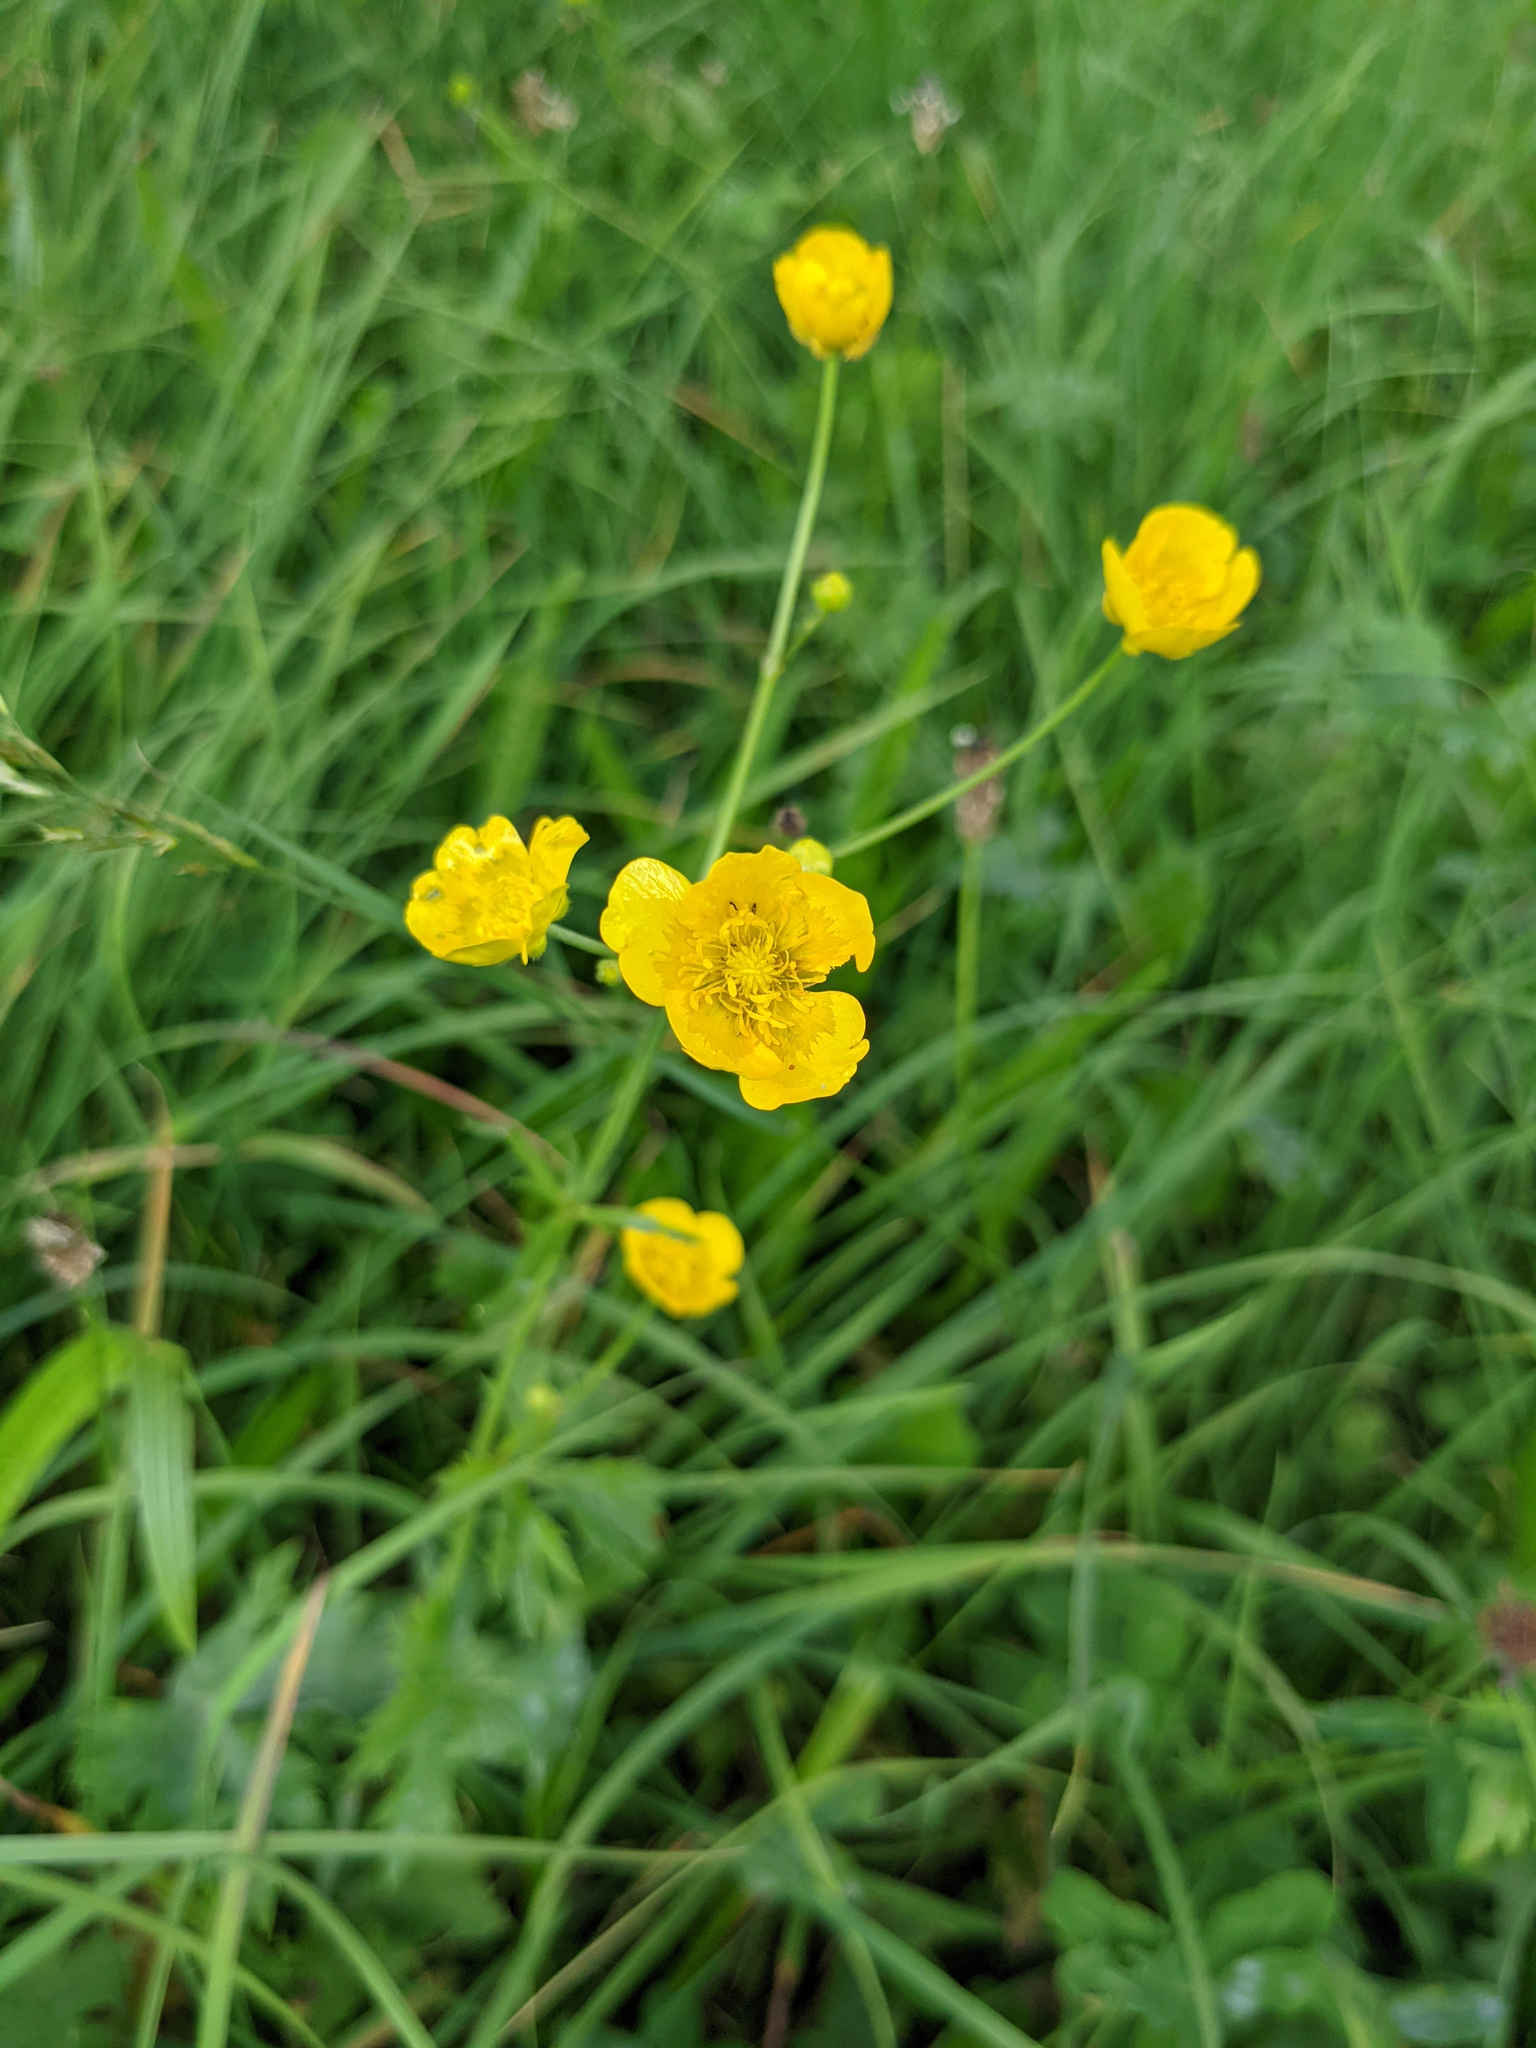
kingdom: Plantae
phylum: Tracheophyta
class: Magnoliopsida
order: Ranunculales
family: Ranunculaceae
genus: Ranunculus
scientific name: Ranunculus acris
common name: Meadow buttercup
